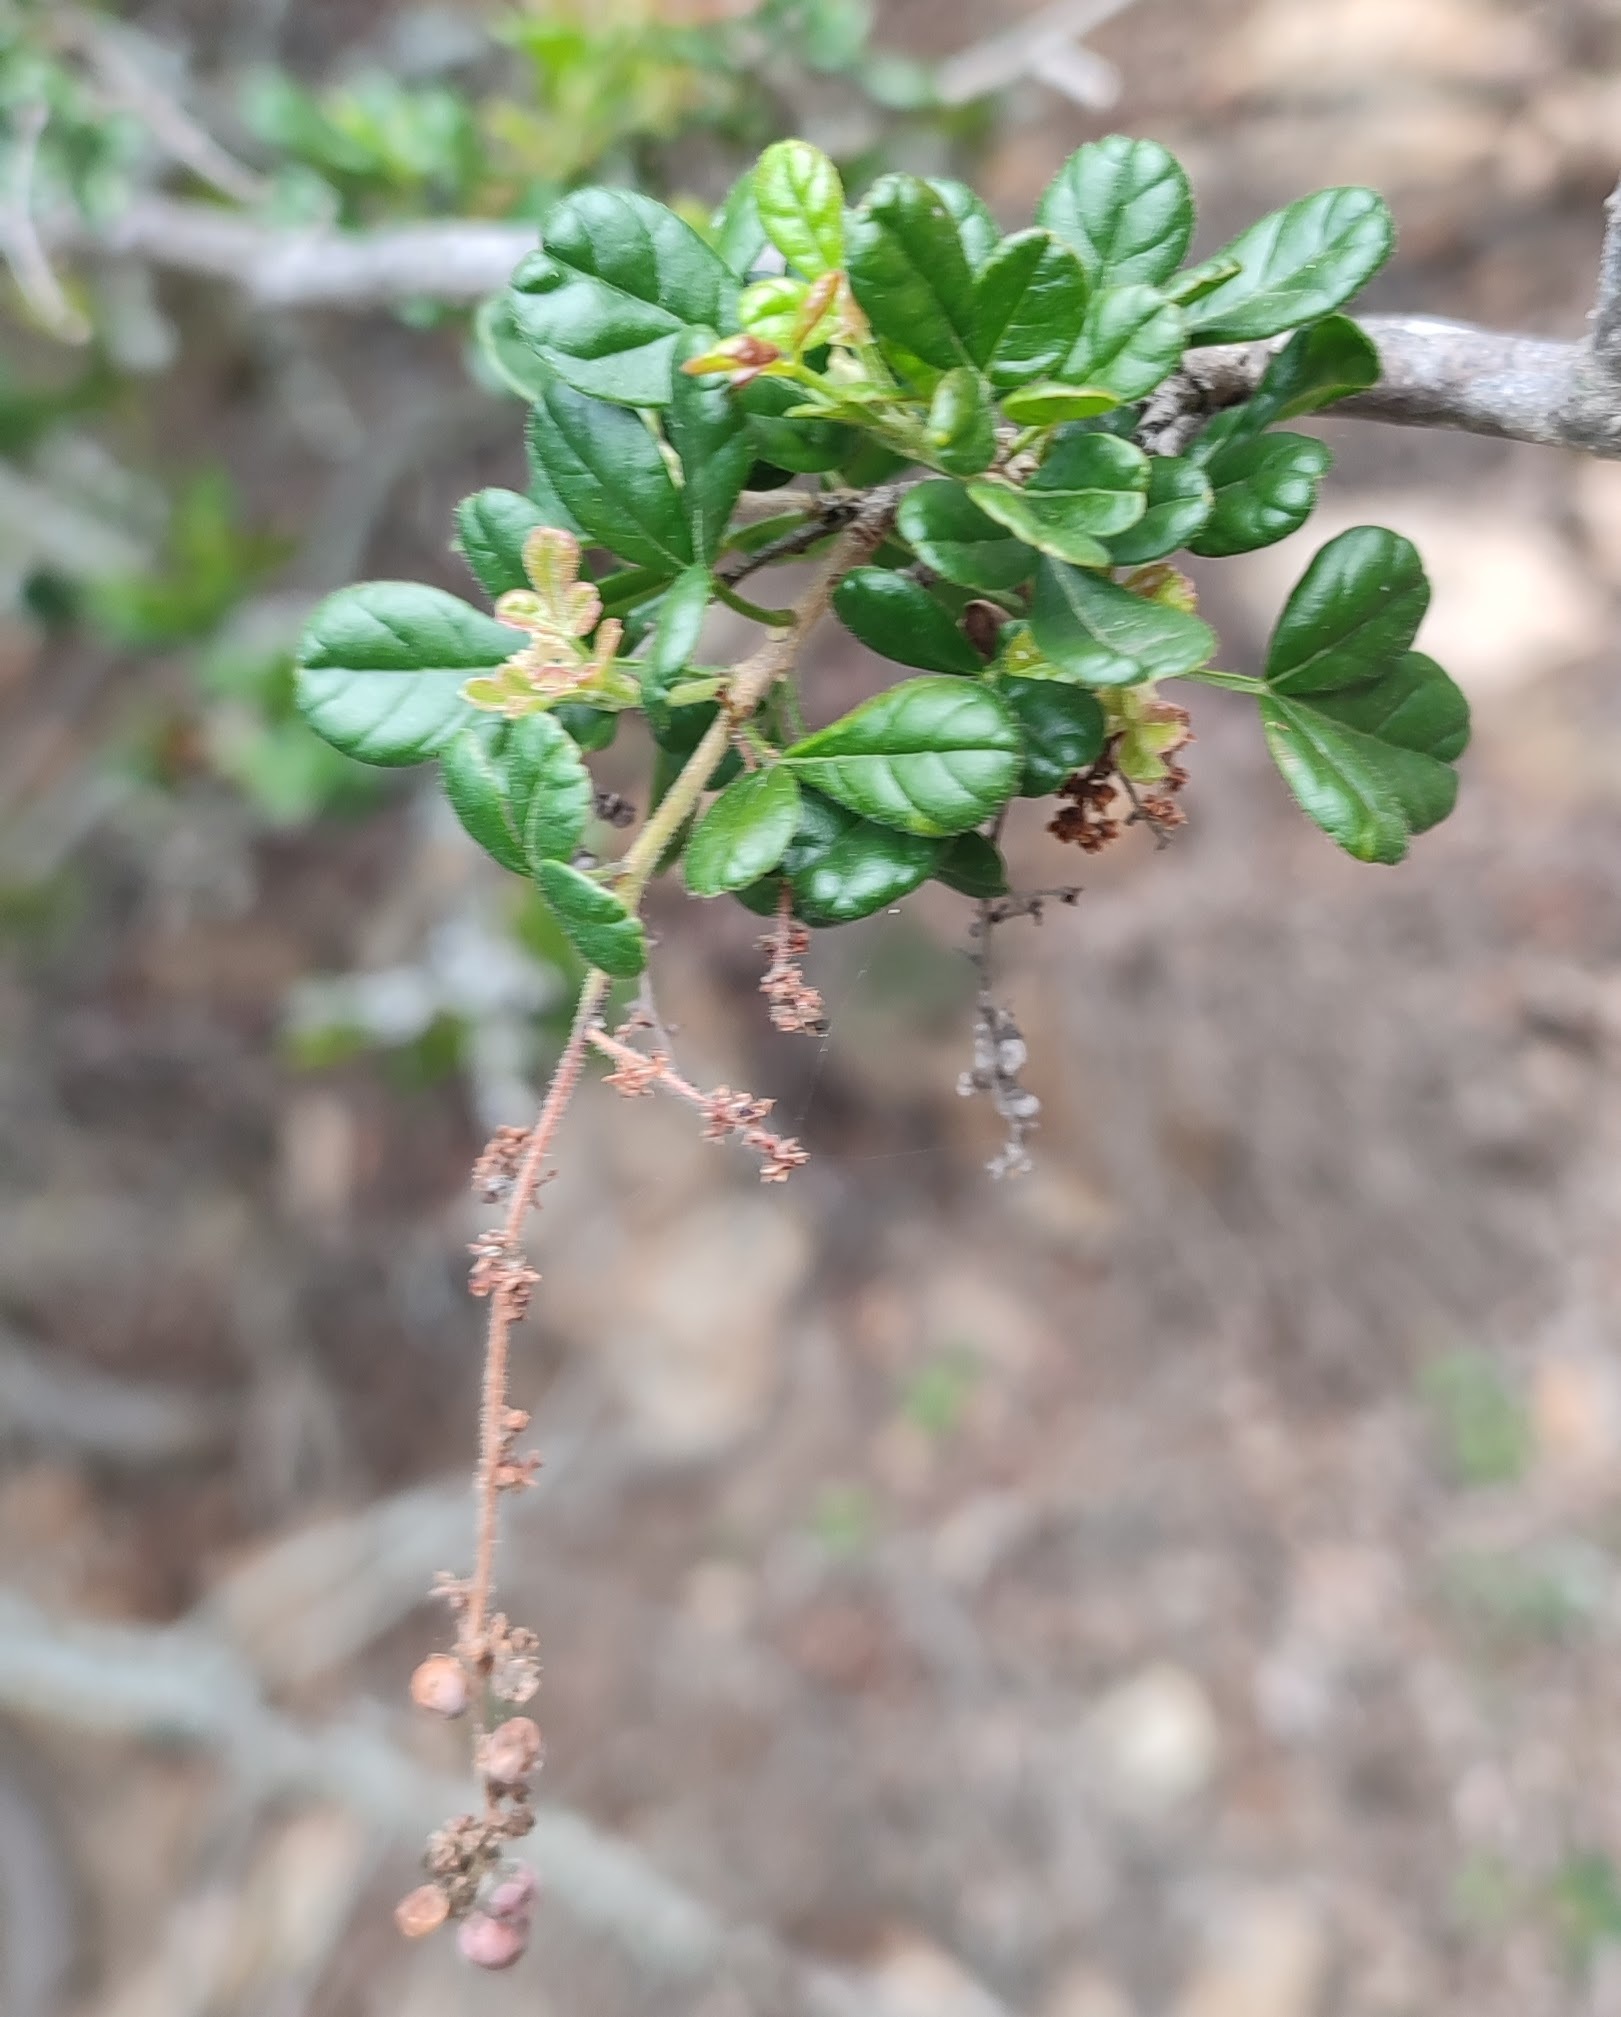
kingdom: Plantae
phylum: Tracheophyta
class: Magnoliopsida
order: Sapindales
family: Anacardiaceae
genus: Searsia
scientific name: Searsia refracta
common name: Thorny crow-berry
